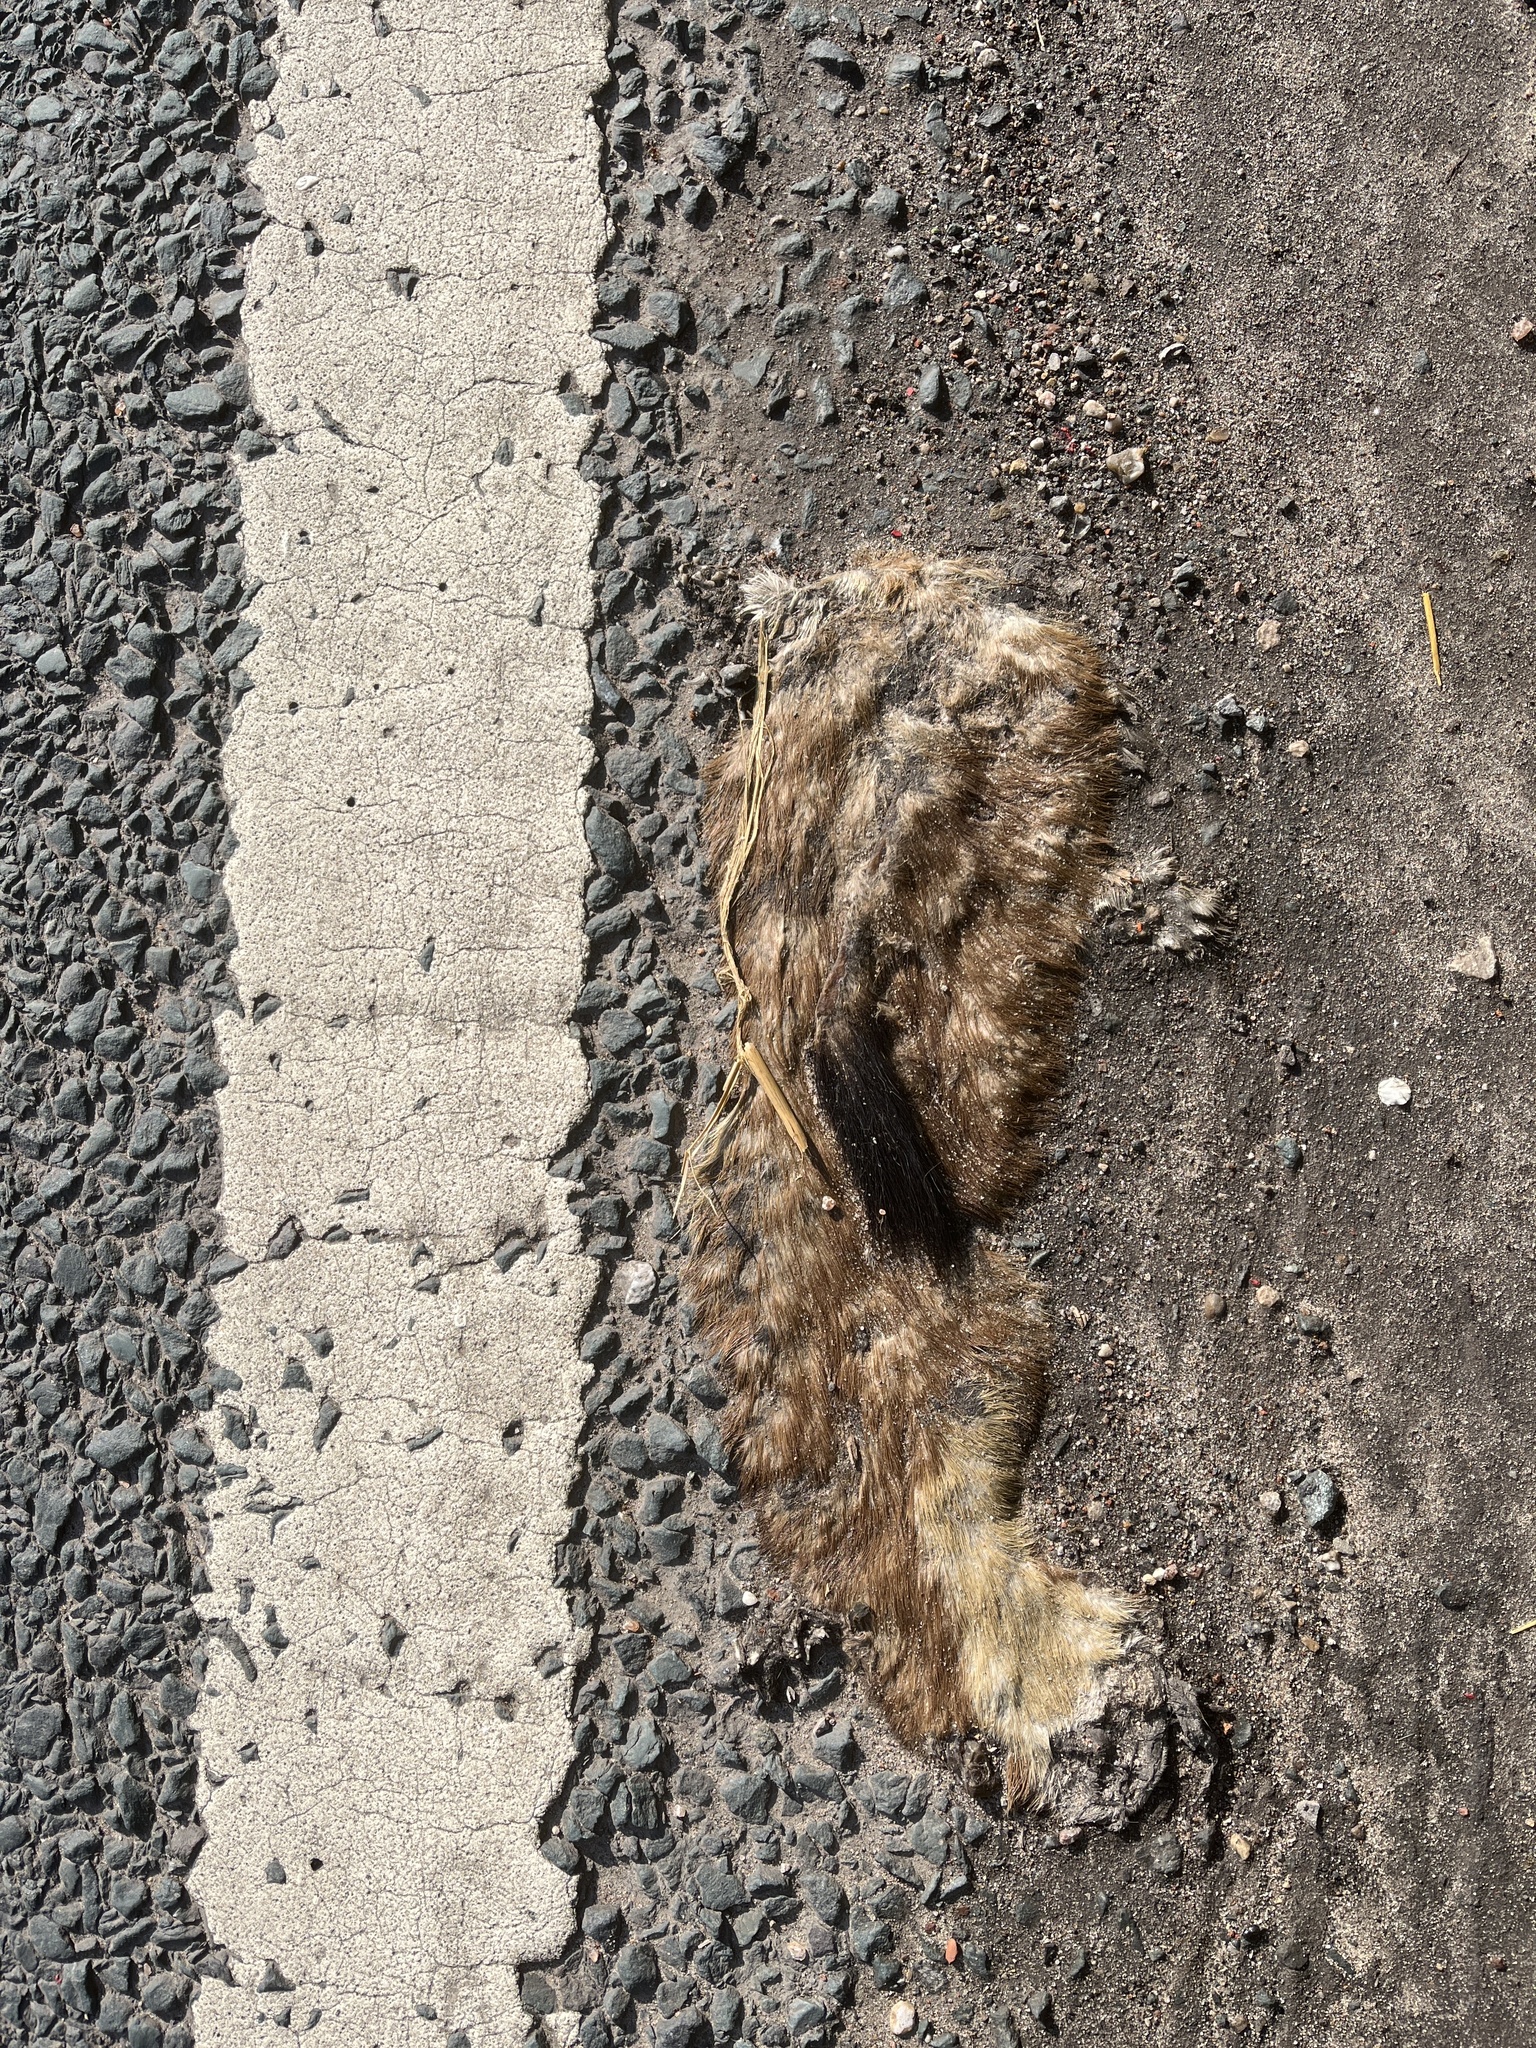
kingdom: Animalia
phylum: Chordata
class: Mammalia
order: Carnivora
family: Mustelidae
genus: Mustela
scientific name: Mustela erminea
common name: Stoat
